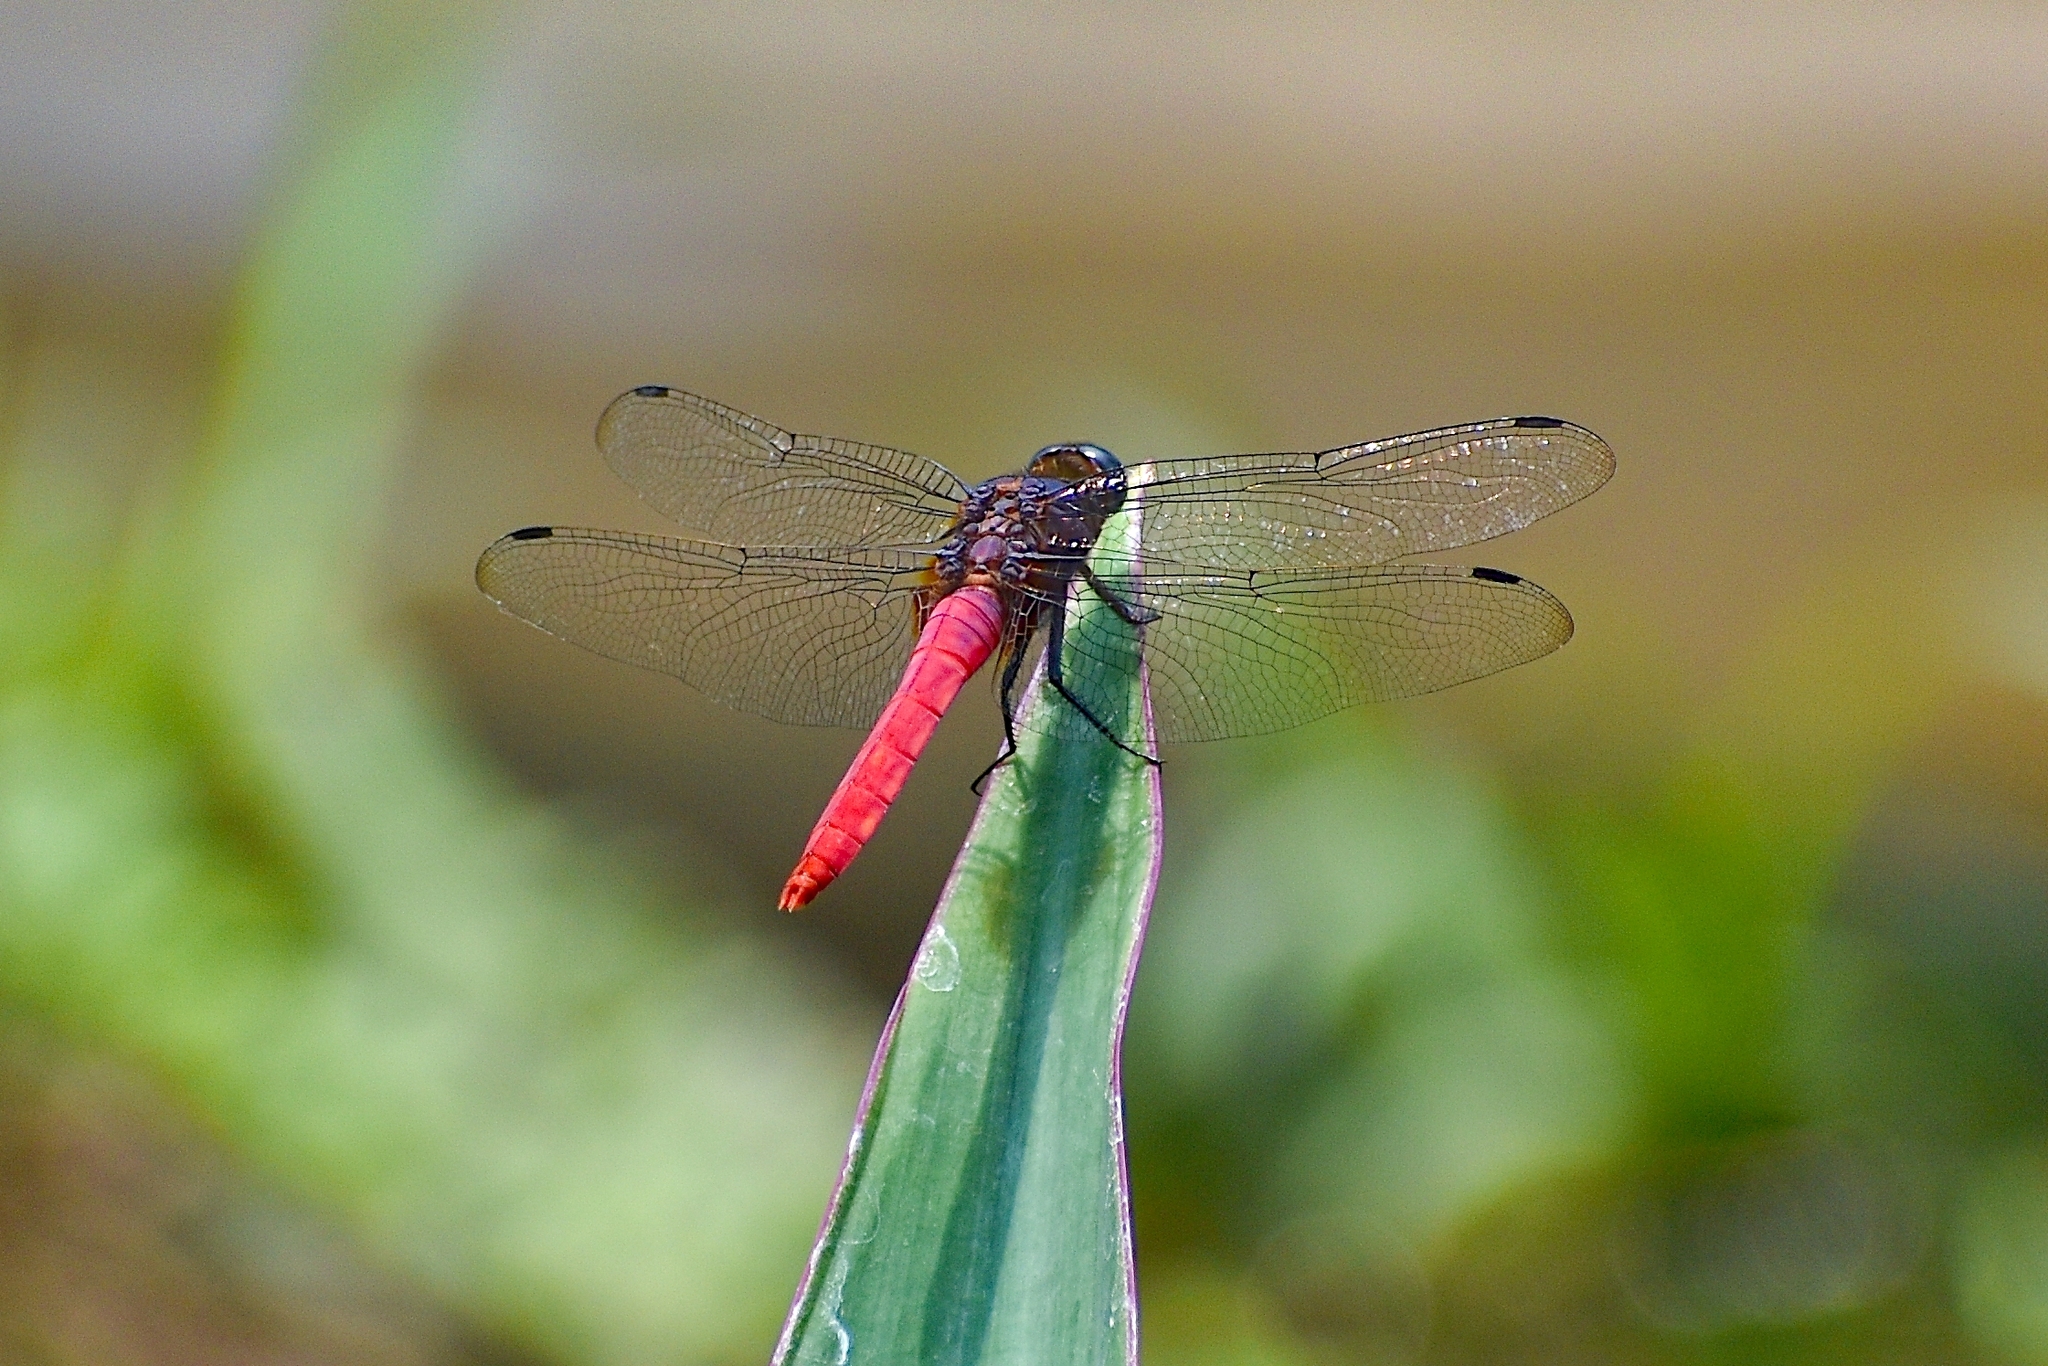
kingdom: Animalia
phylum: Arthropoda
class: Insecta
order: Odonata
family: Libellulidae
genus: Orthetrum
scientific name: Orthetrum pruinosum
